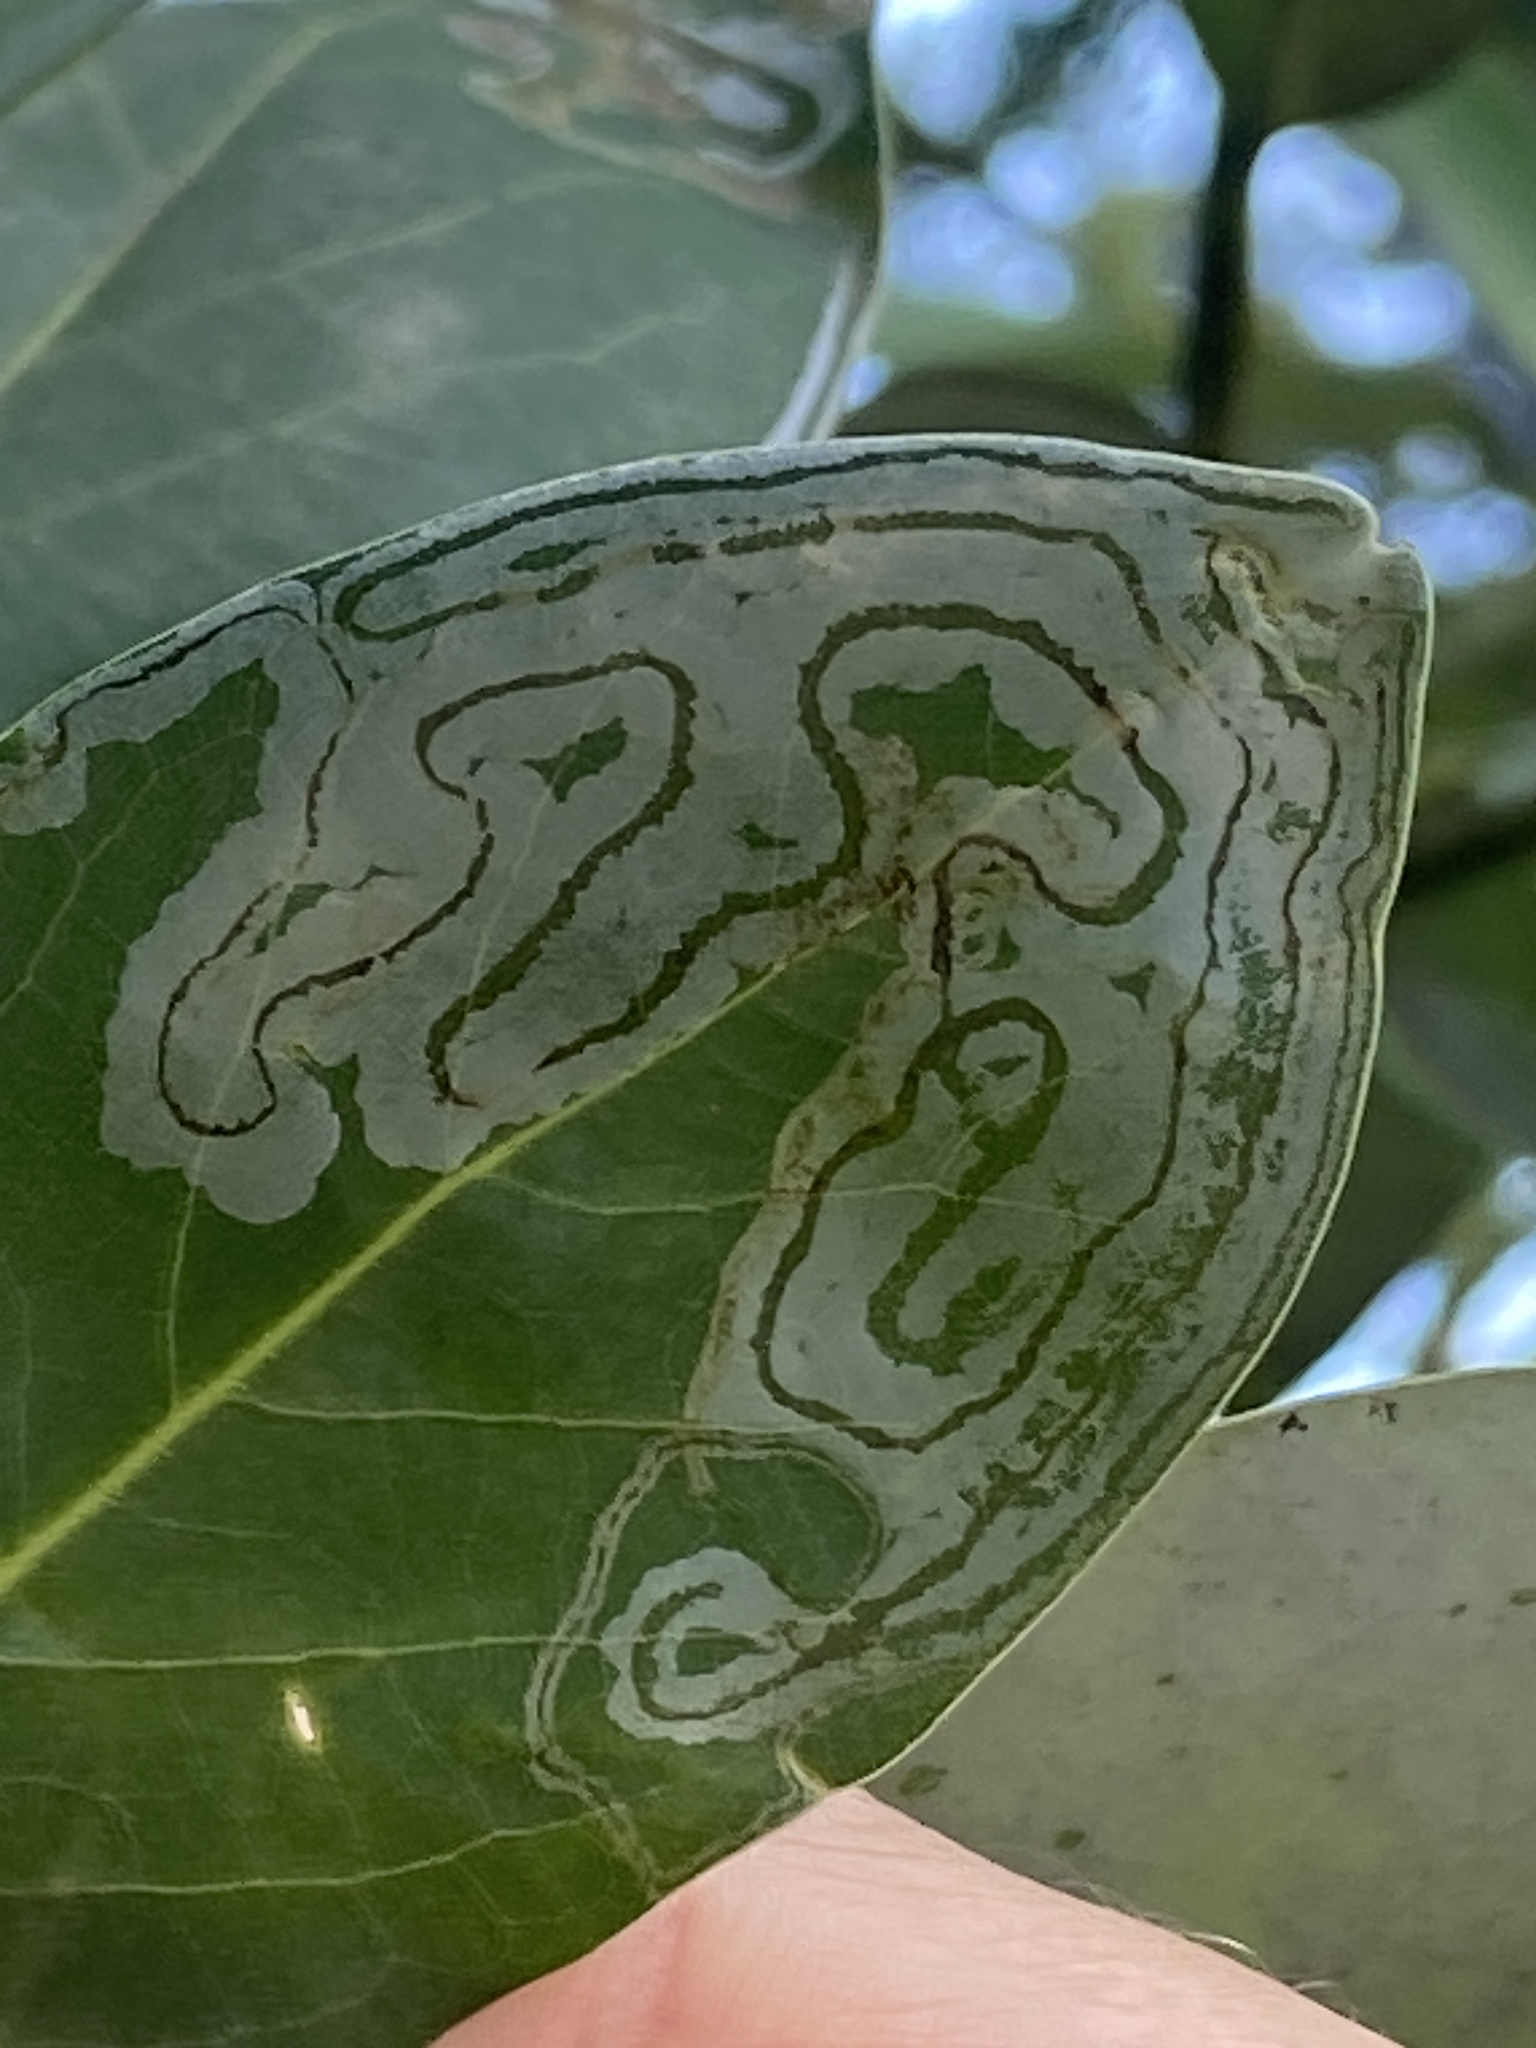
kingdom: Animalia
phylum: Arthropoda
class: Insecta
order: Lepidoptera
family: Gracillariidae
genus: Phyllocnistis
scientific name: Phyllocnistis liriodendronella
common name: Tulip tree leaf miner
